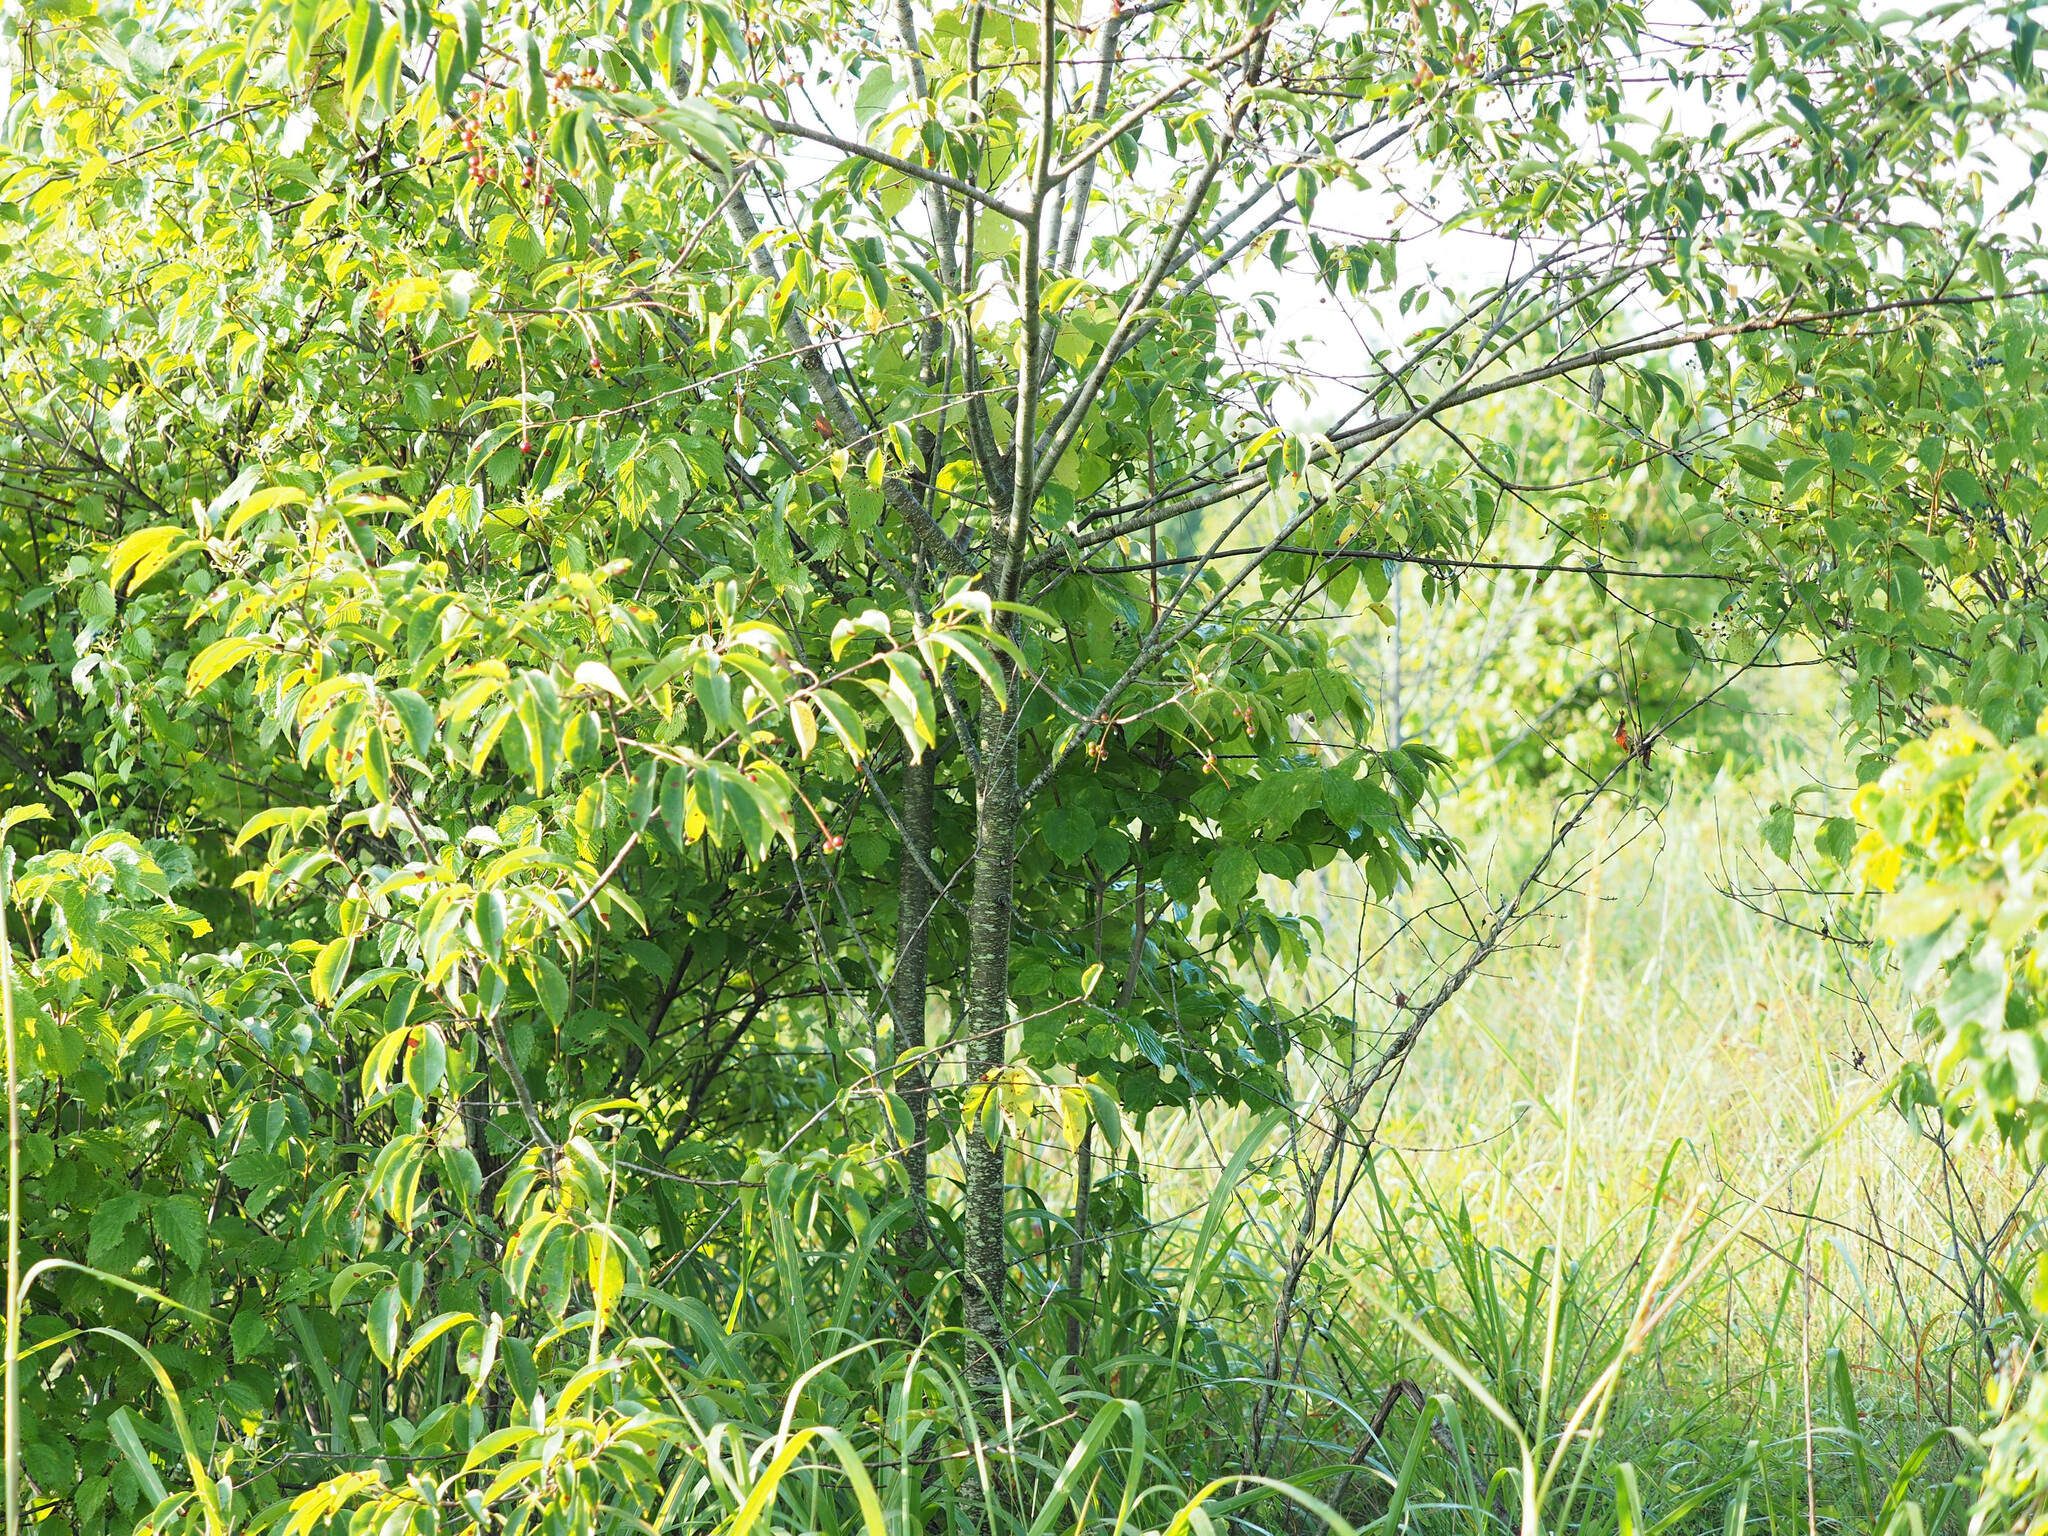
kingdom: Plantae
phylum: Tracheophyta
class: Magnoliopsida
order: Rosales
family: Rosaceae
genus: Prunus
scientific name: Prunus serotina
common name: Black cherry
